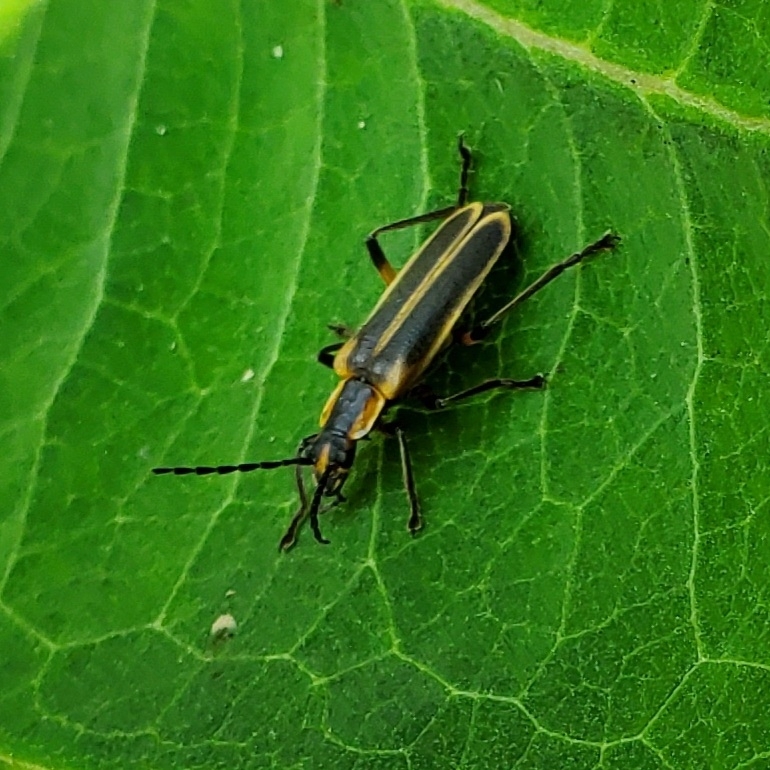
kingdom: Animalia
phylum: Arthropoda
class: Insecta
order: Coleoptera
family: Cantharidae
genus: Chauliognathus
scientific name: Chauliognathus marginatus
